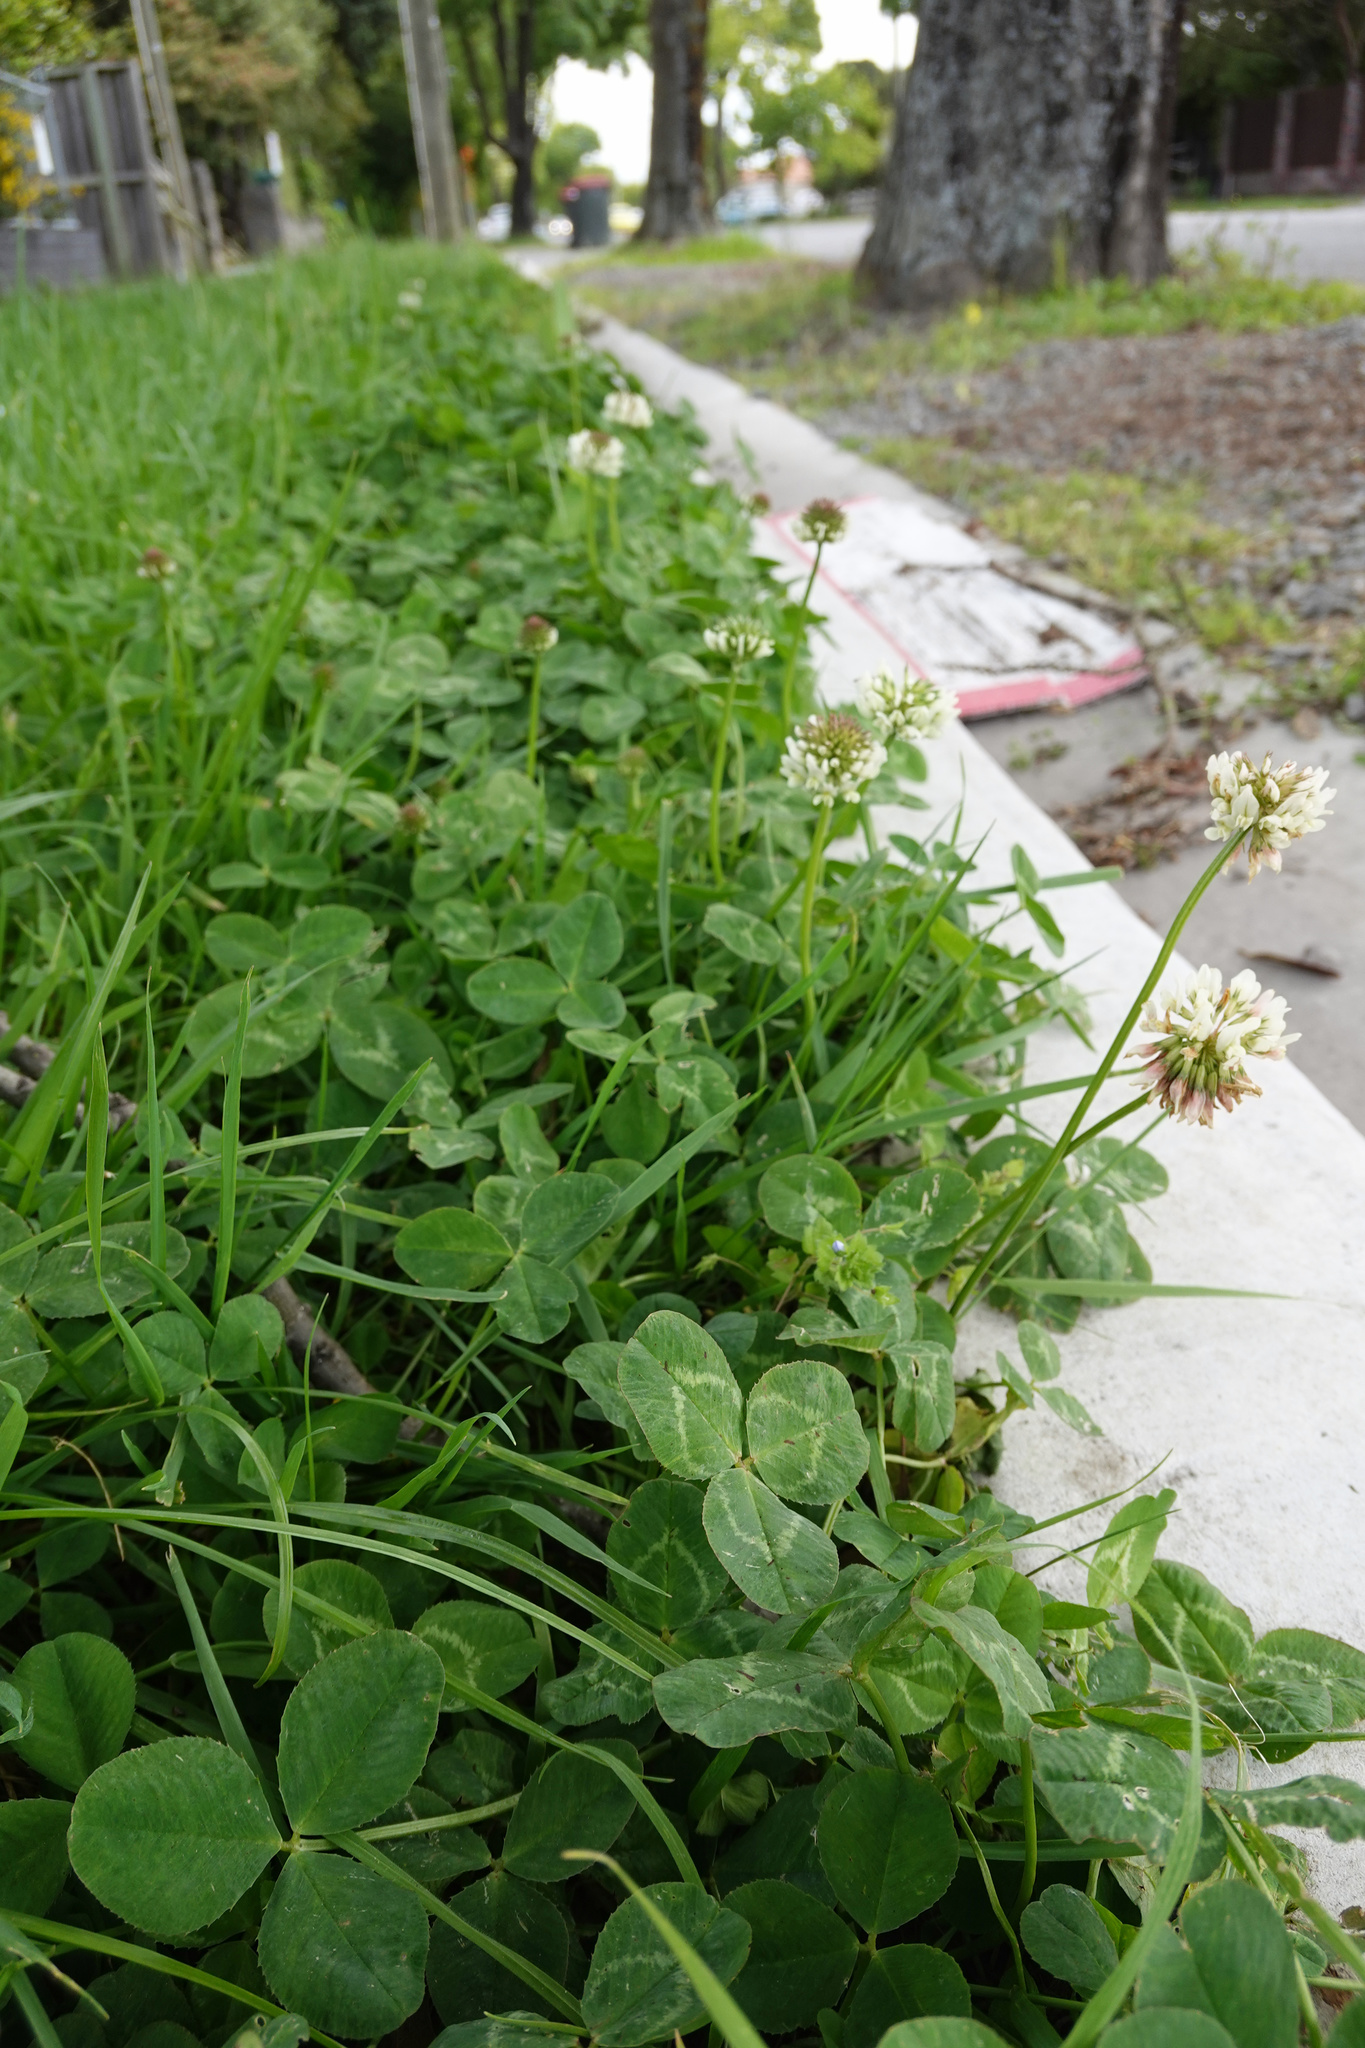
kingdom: Plantae
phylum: Tracheophyta
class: Magnoliopsida
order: Fabales
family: Fabaceae
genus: Trifolium
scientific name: Trifolium repens
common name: White clover
